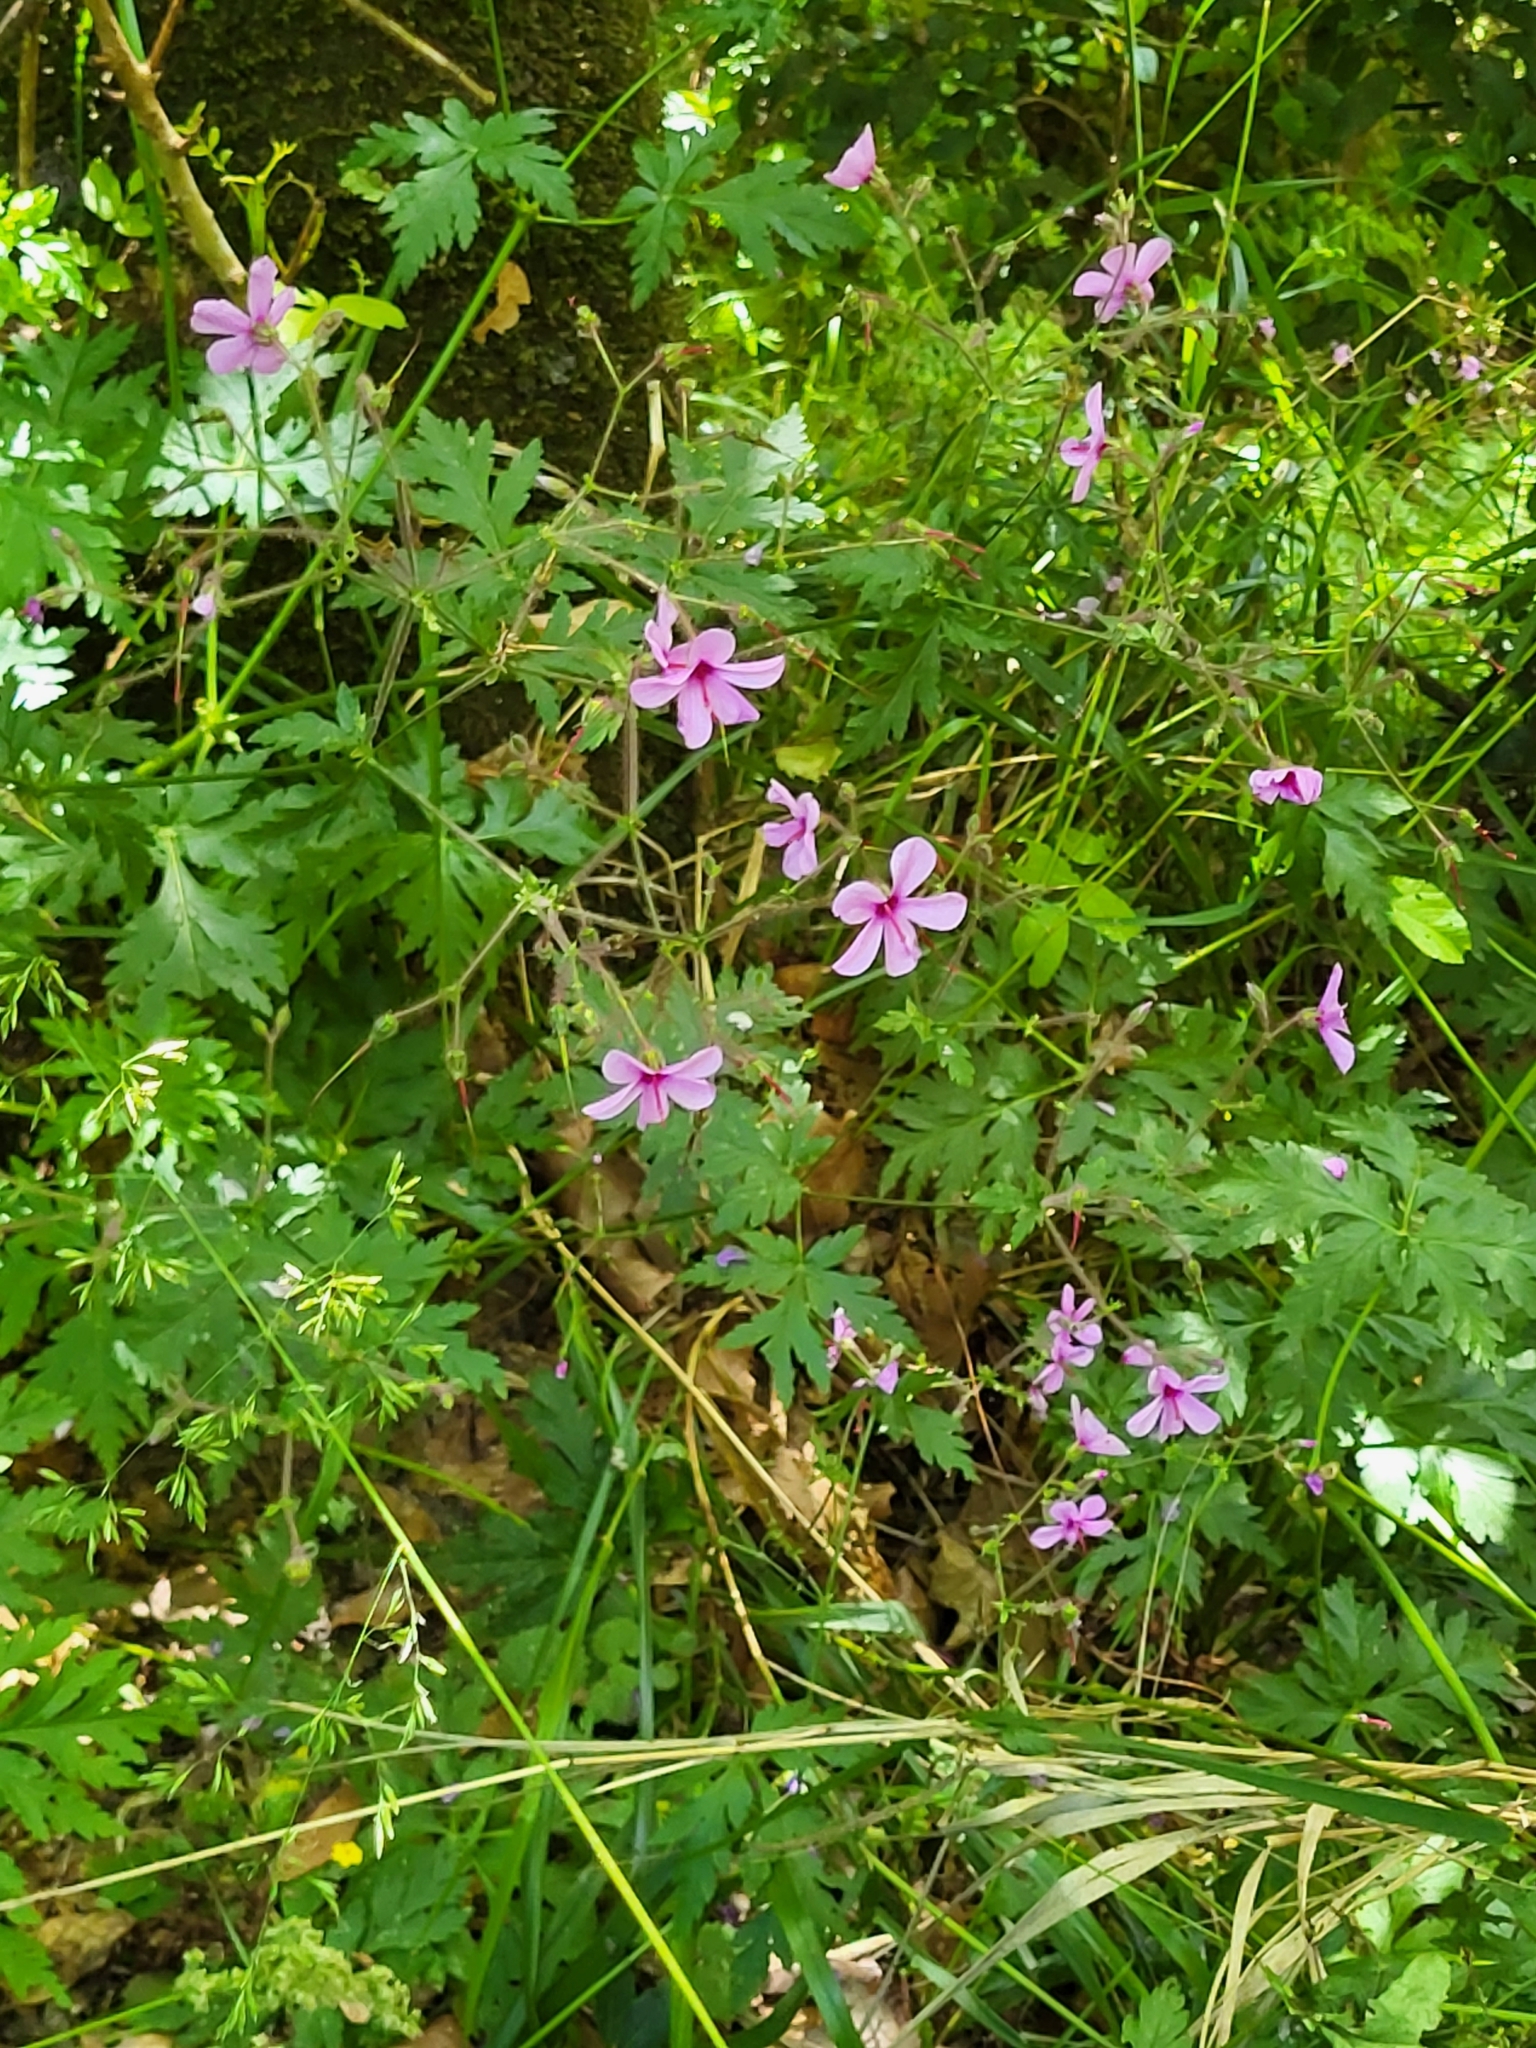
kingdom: Plantae
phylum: Tracheophyta
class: Magnoliopsida
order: Geraniales
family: Geraniaceae
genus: Geranium
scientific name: Geranium palmatum
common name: Canary island geranium
